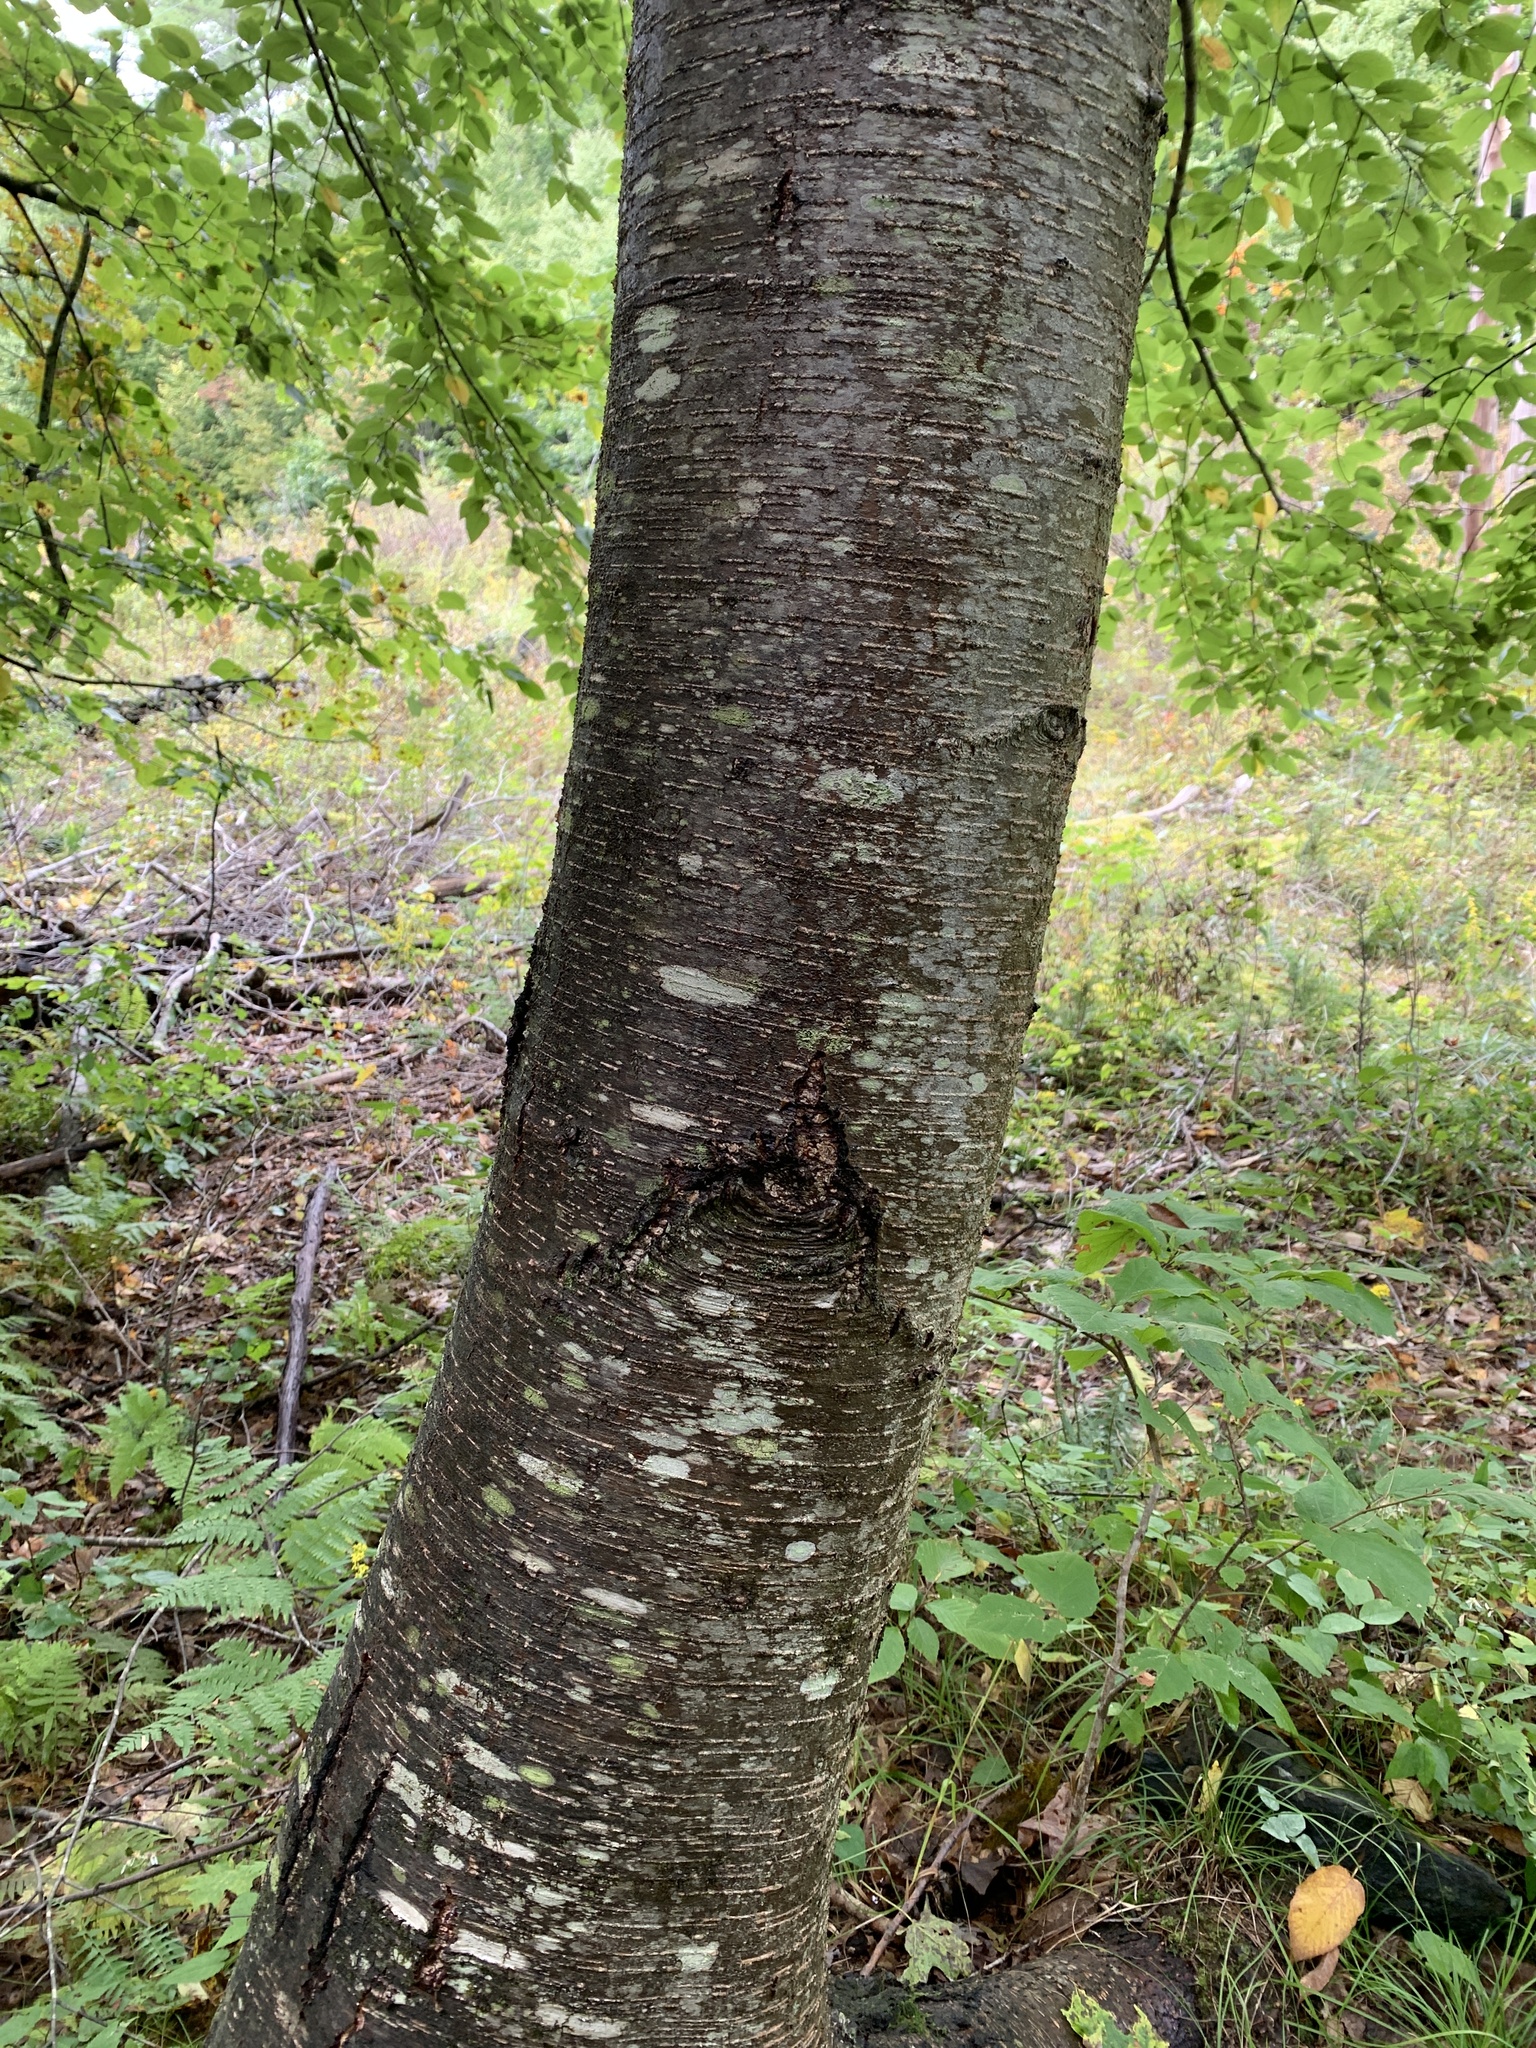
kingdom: Plantae
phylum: Tracheophyta
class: Magnoliopsida
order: Fagales
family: Betulaceae
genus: Betula
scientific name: Betula lenta
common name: Black birch
